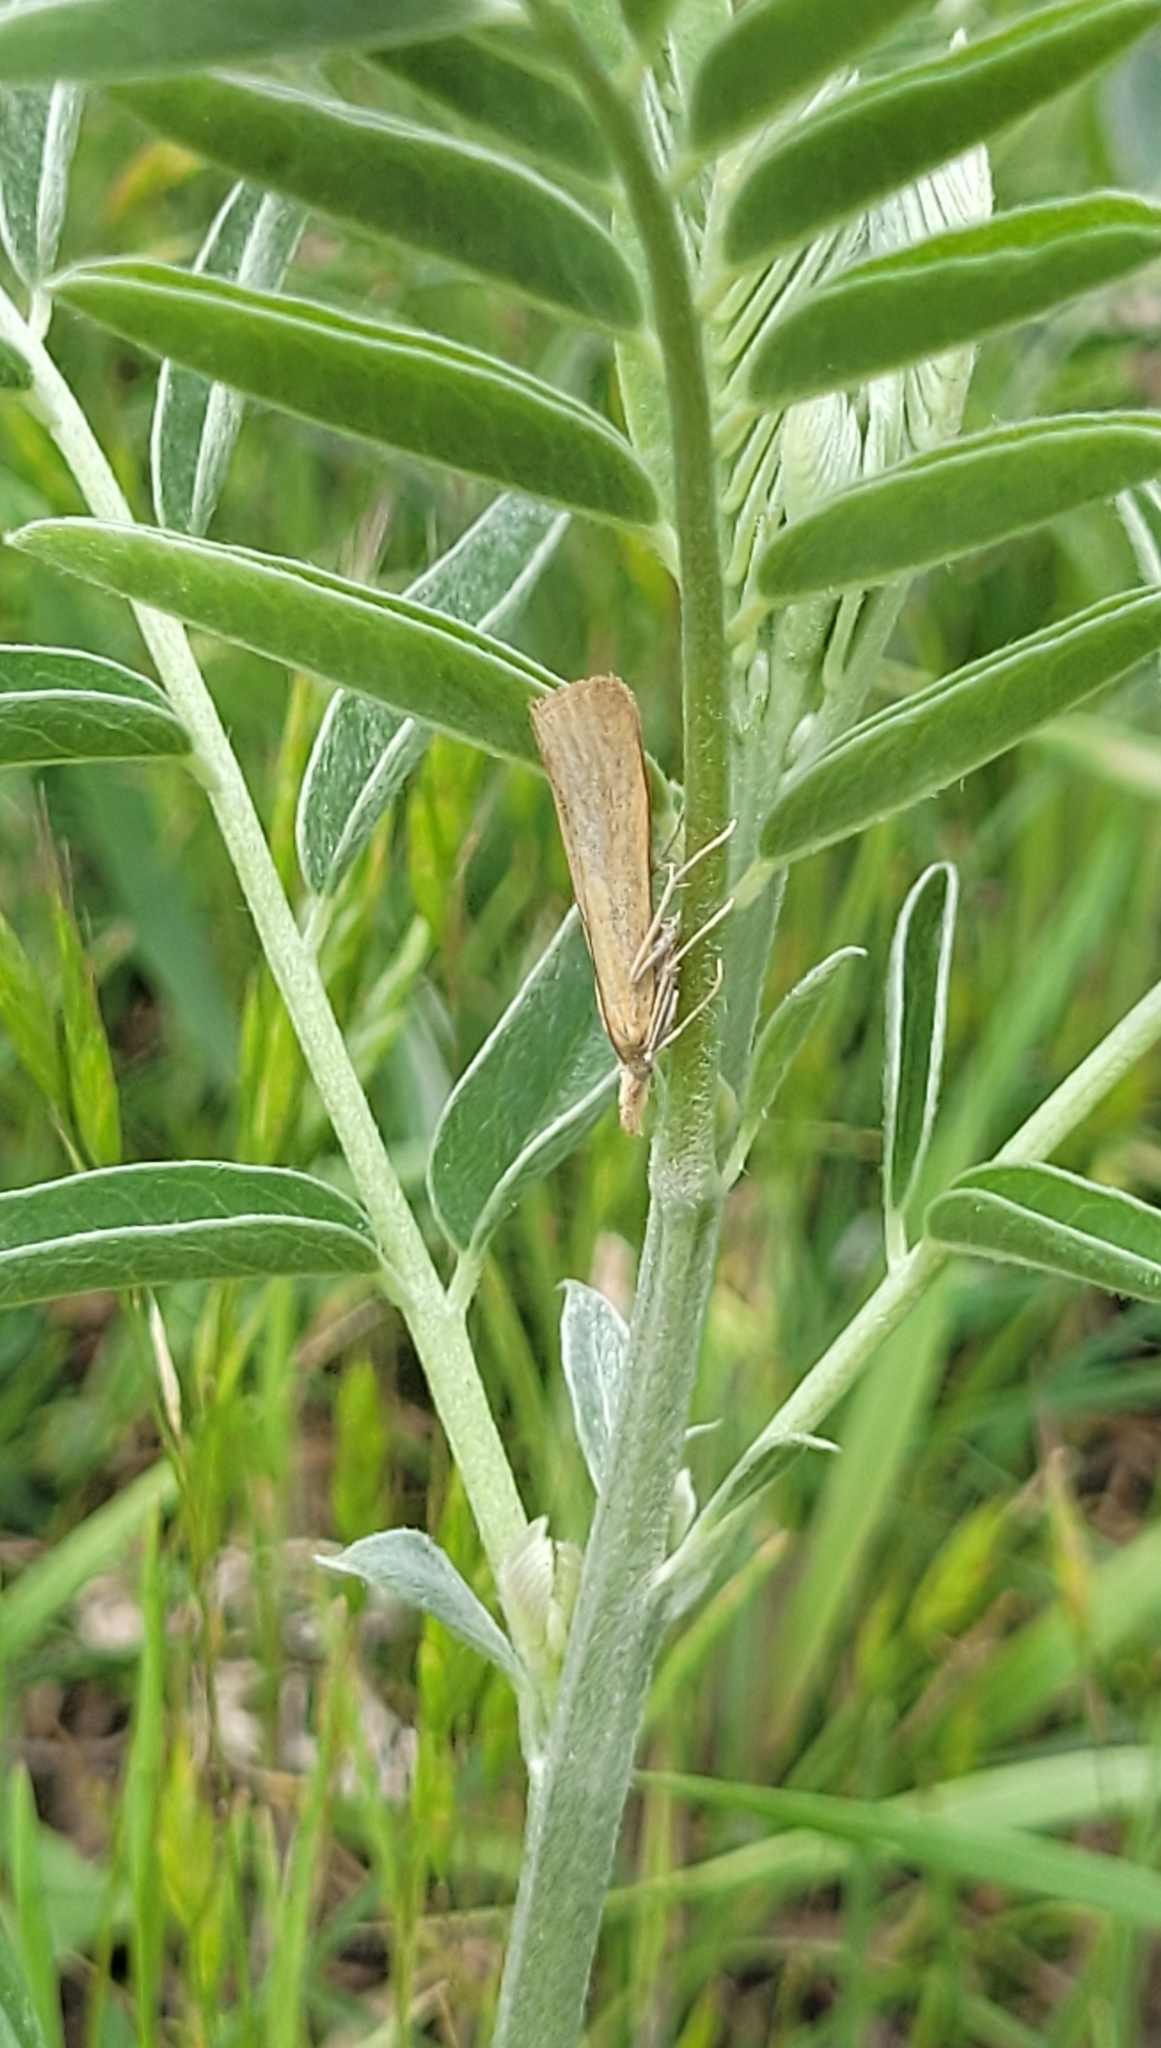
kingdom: Animalia
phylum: Arthropoda
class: Insecta
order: Lepidoptera
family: Crambidae
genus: Pediasia
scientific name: Pediasia luteella
